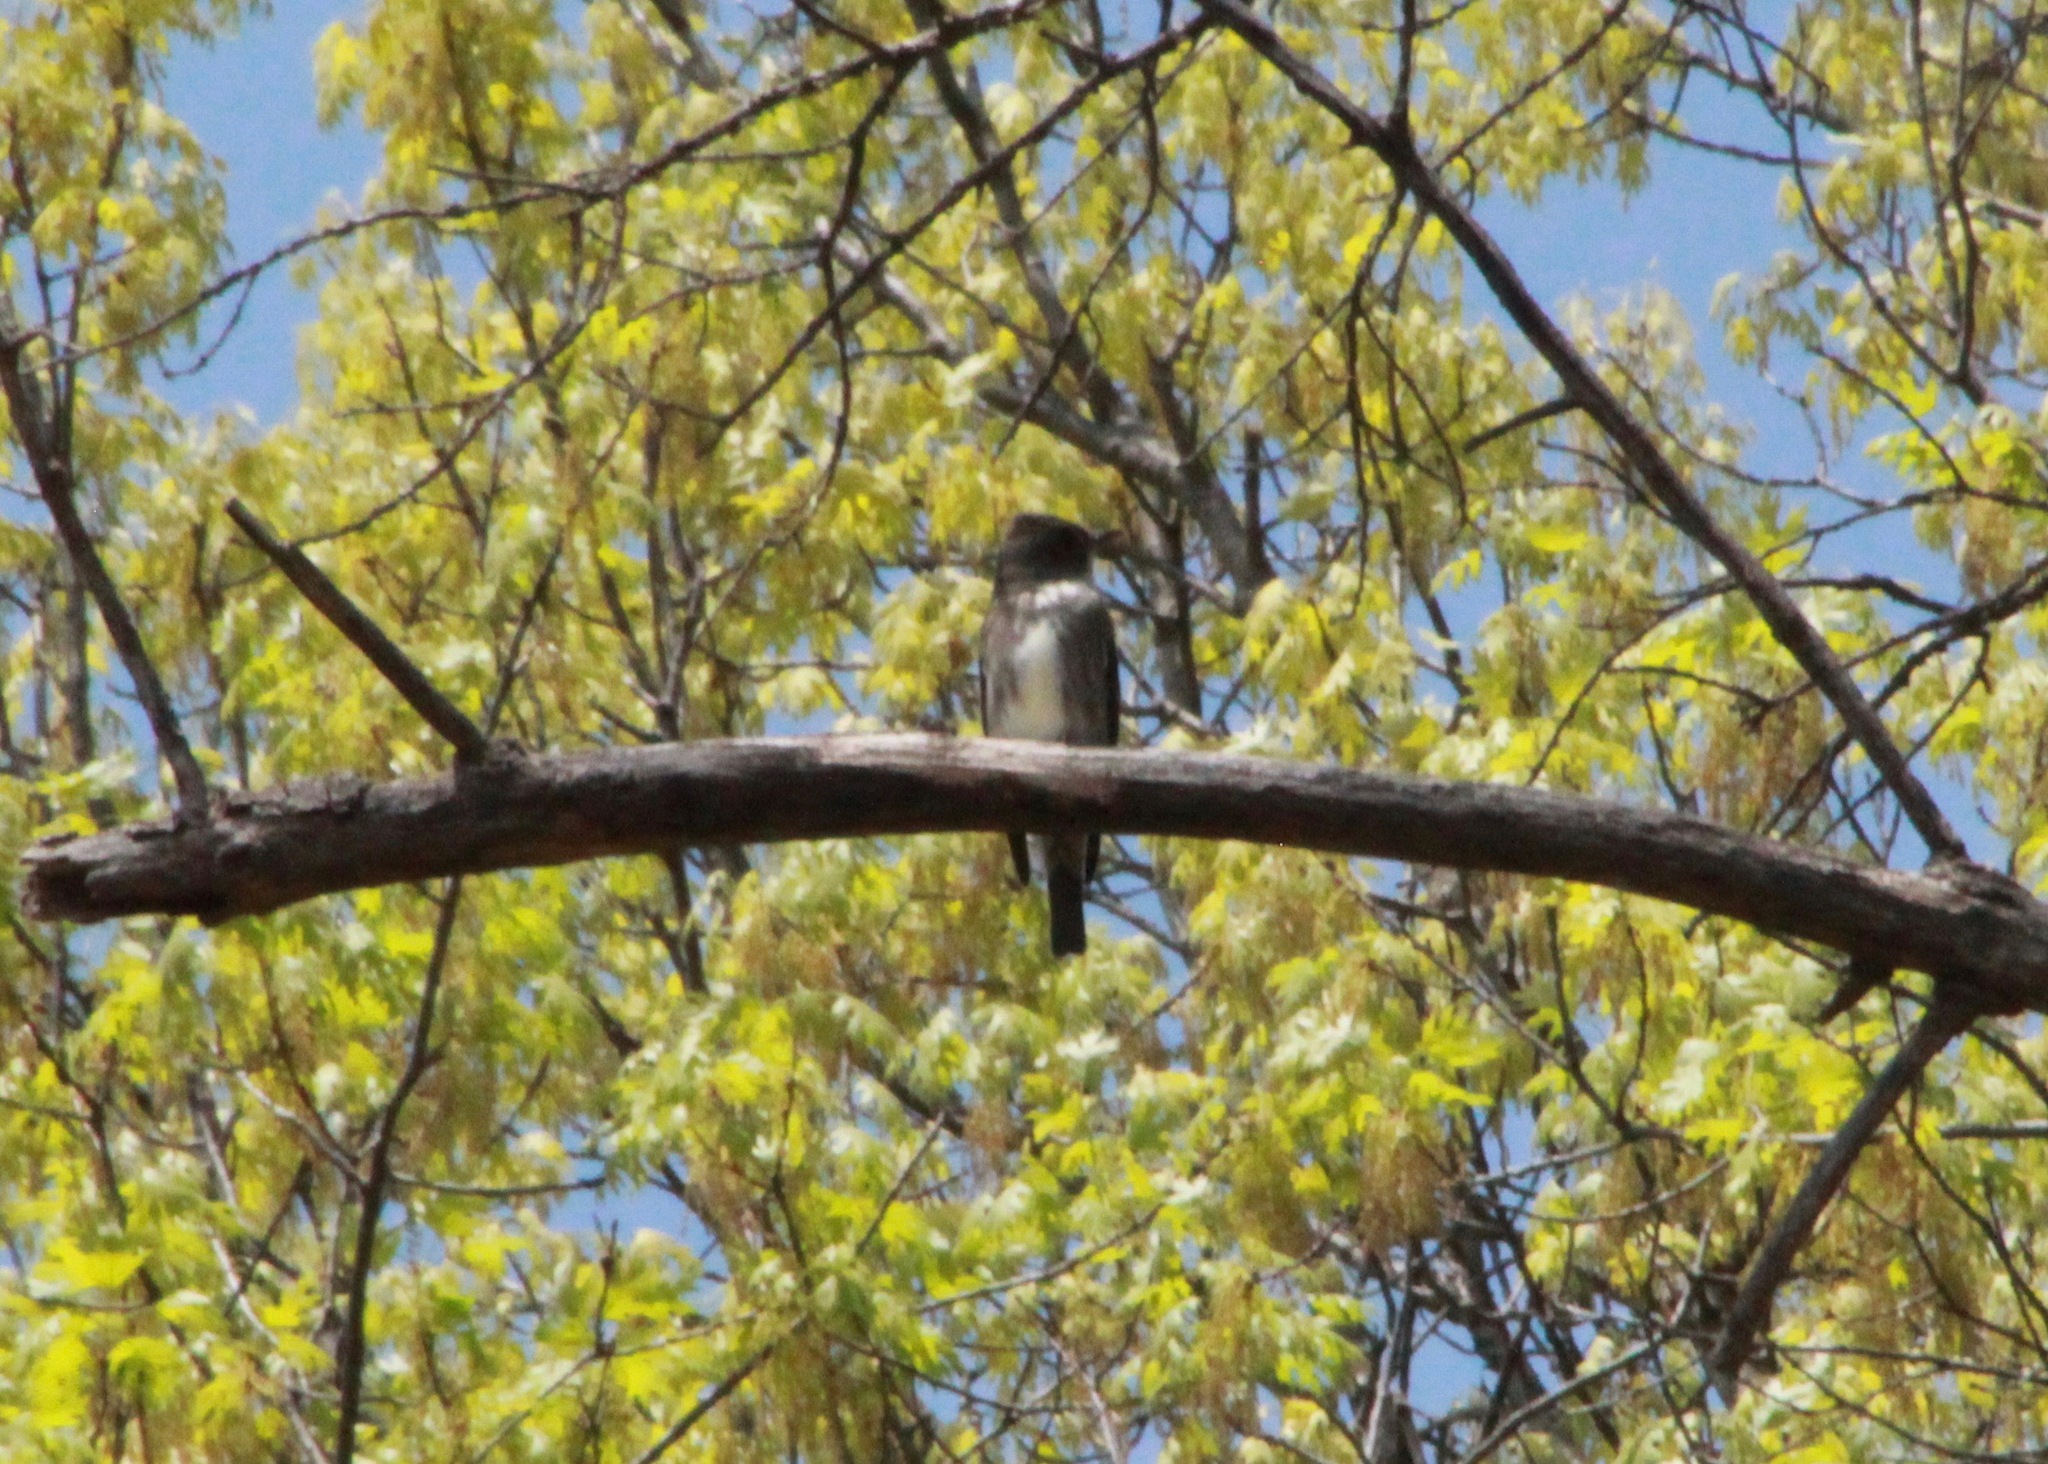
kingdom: Animalia
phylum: Chordata
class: Aves
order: Passeriformes
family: Tyrannidae
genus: Contopus
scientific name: Contopus cooperi
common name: Olive-sided flycatcher
